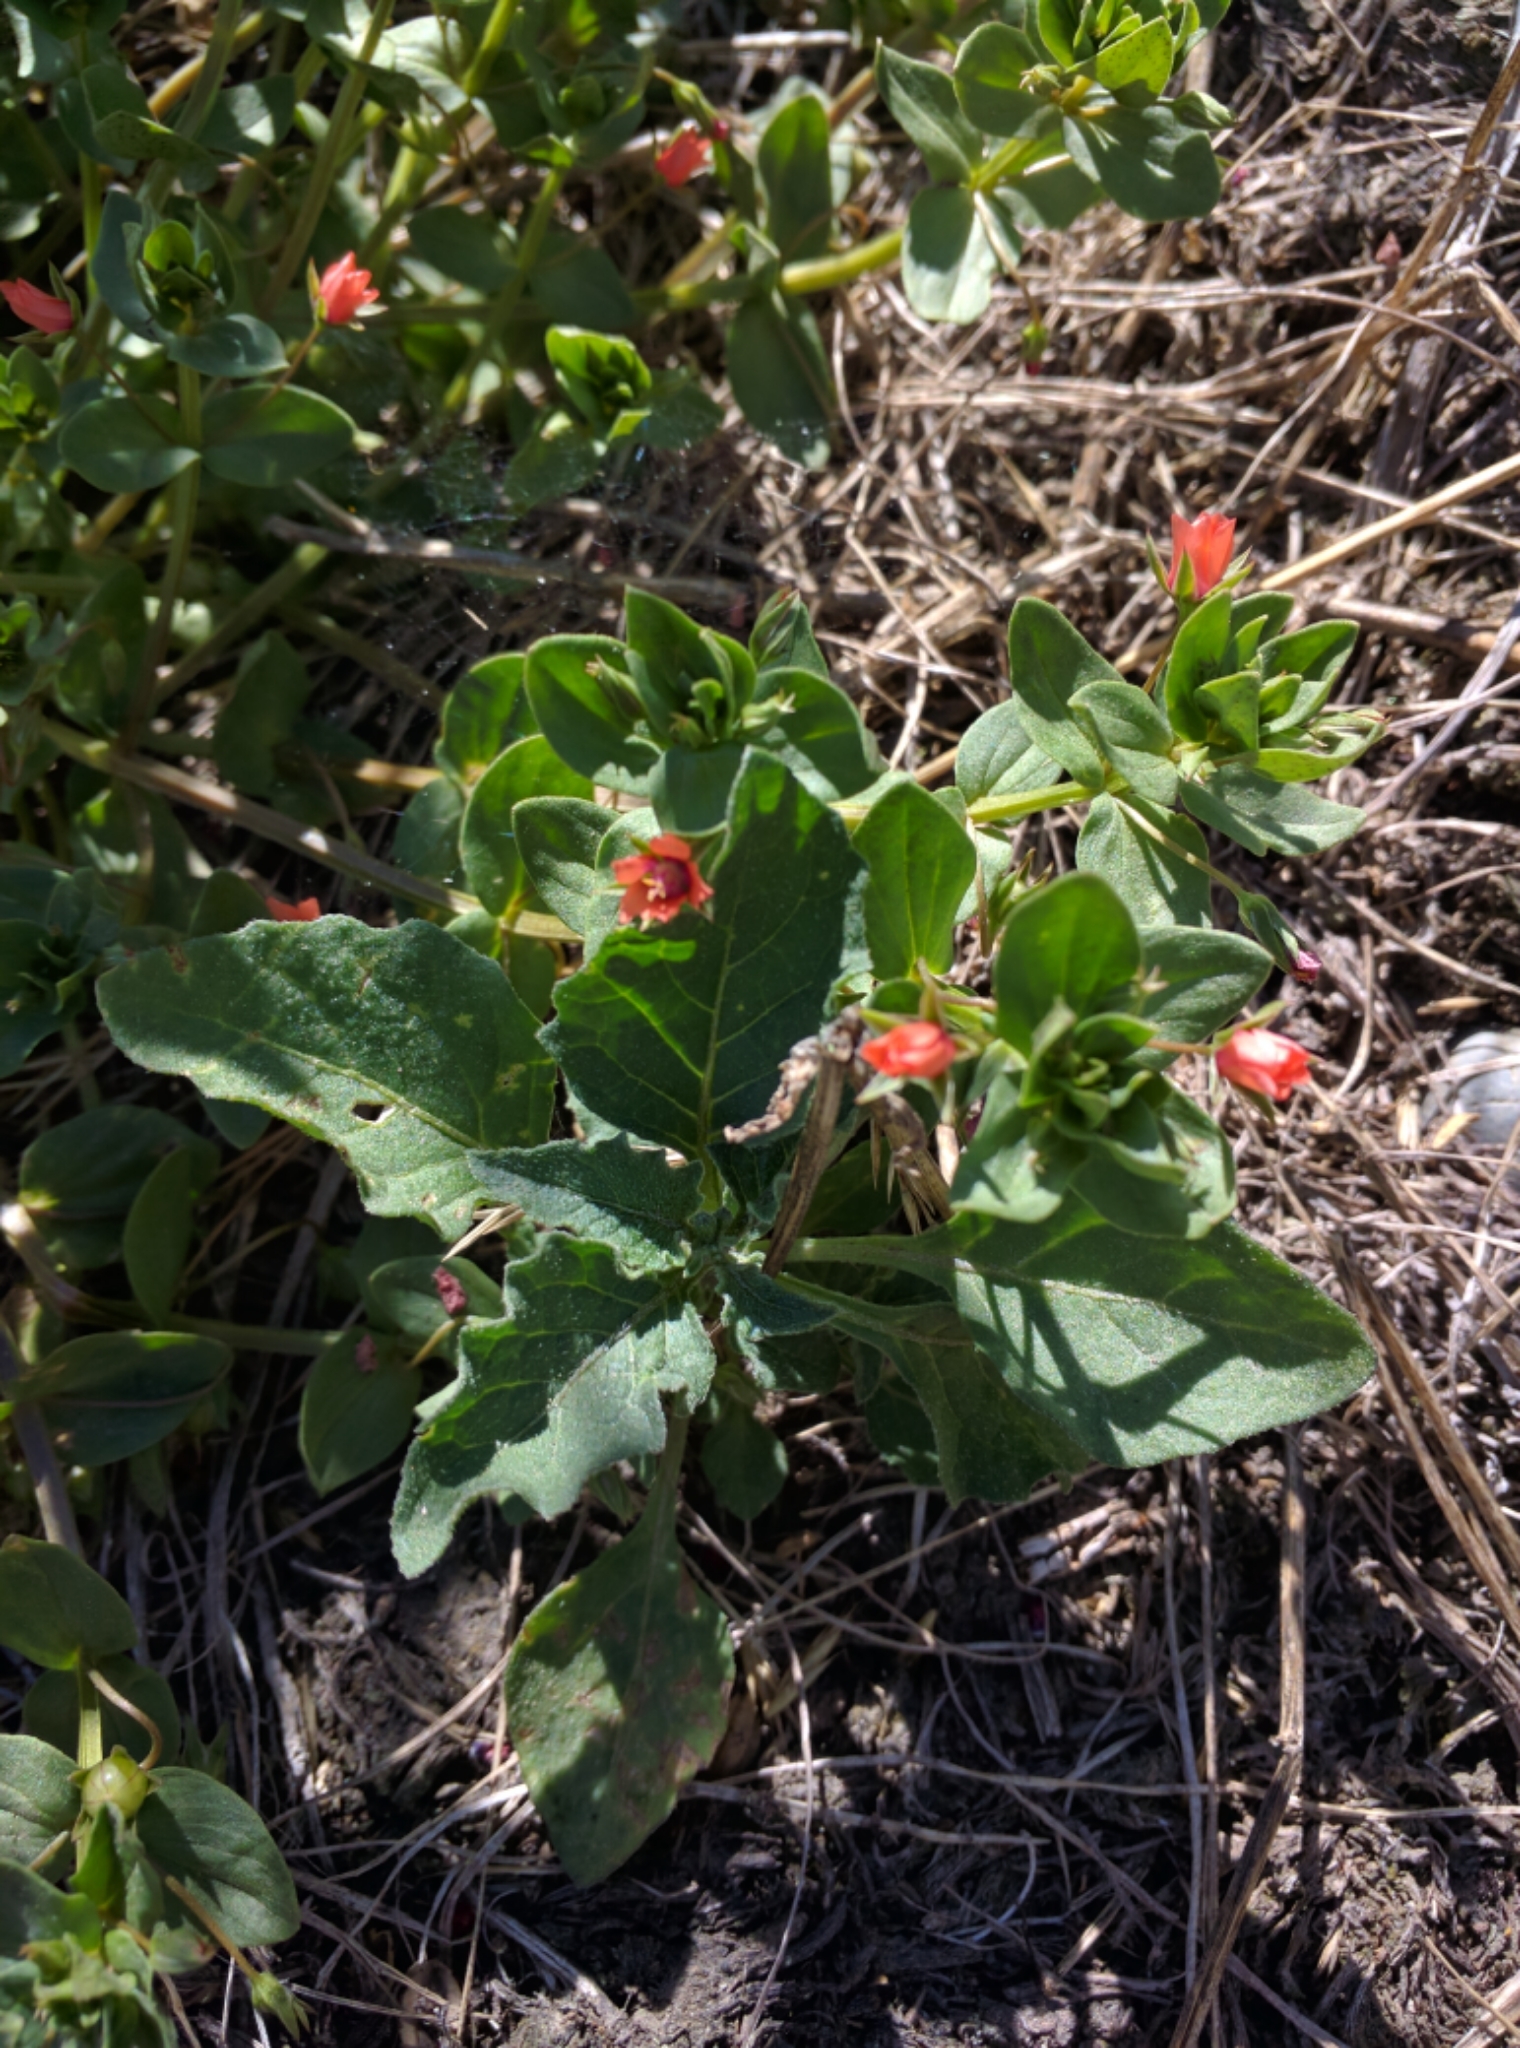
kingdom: Plantae
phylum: Tracheophyta
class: Magnoliopsida
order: Ericales
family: Primulaceae
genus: Lysimachia
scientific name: Lysimachia arvensis
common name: Scarlet pimpernel
